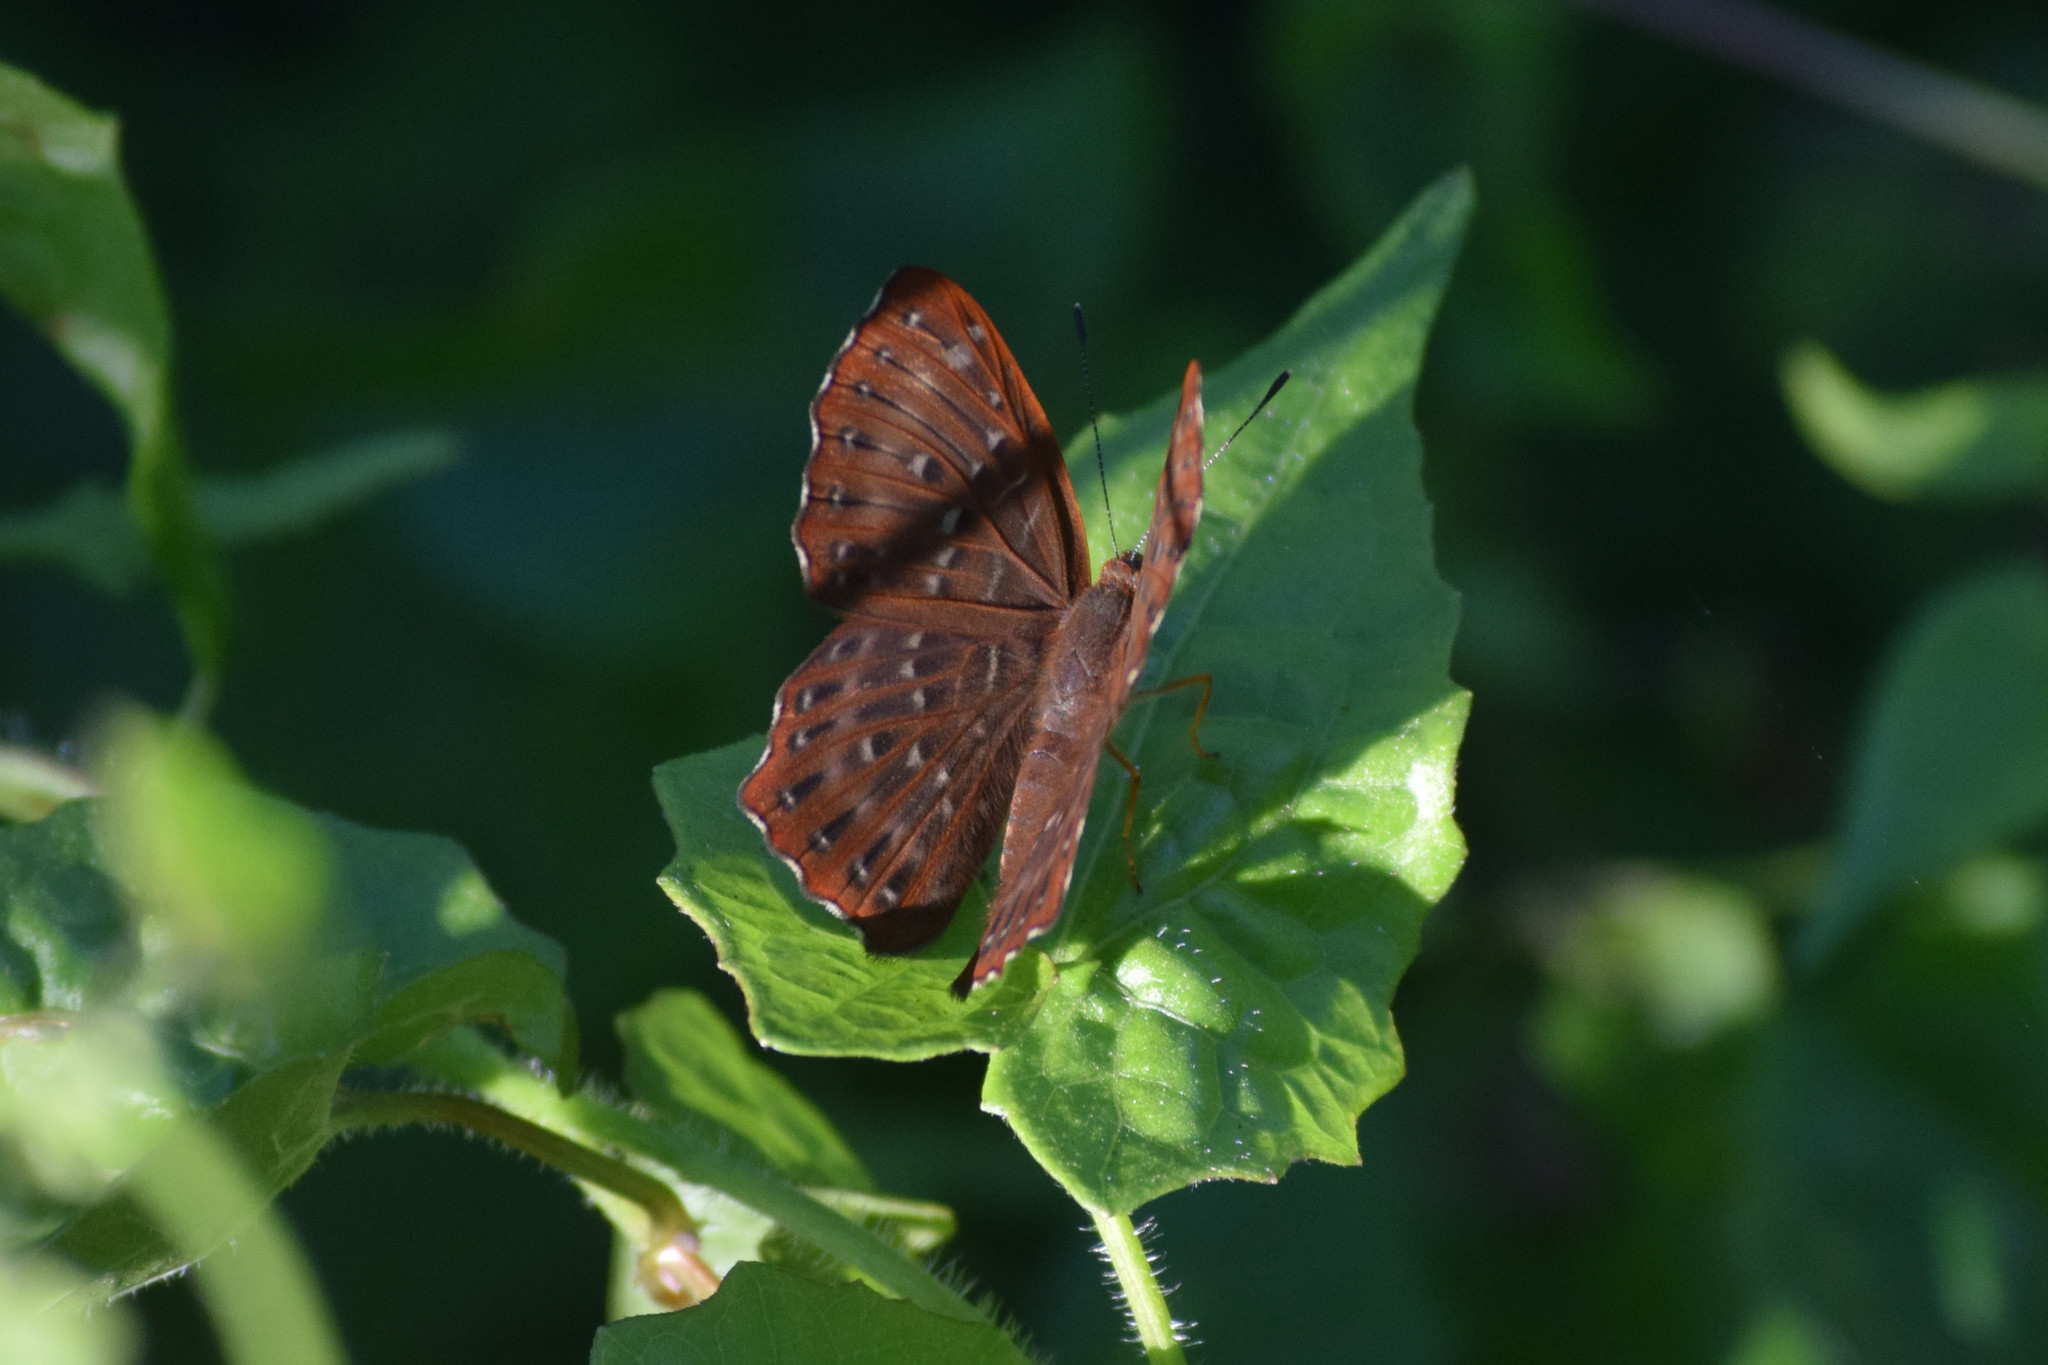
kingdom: Animalia
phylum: Arthropoda
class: Insecta
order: Lepidoptera
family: Riodinidae
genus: Zemeros
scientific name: Zemeros flegyas
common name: Punchinello
